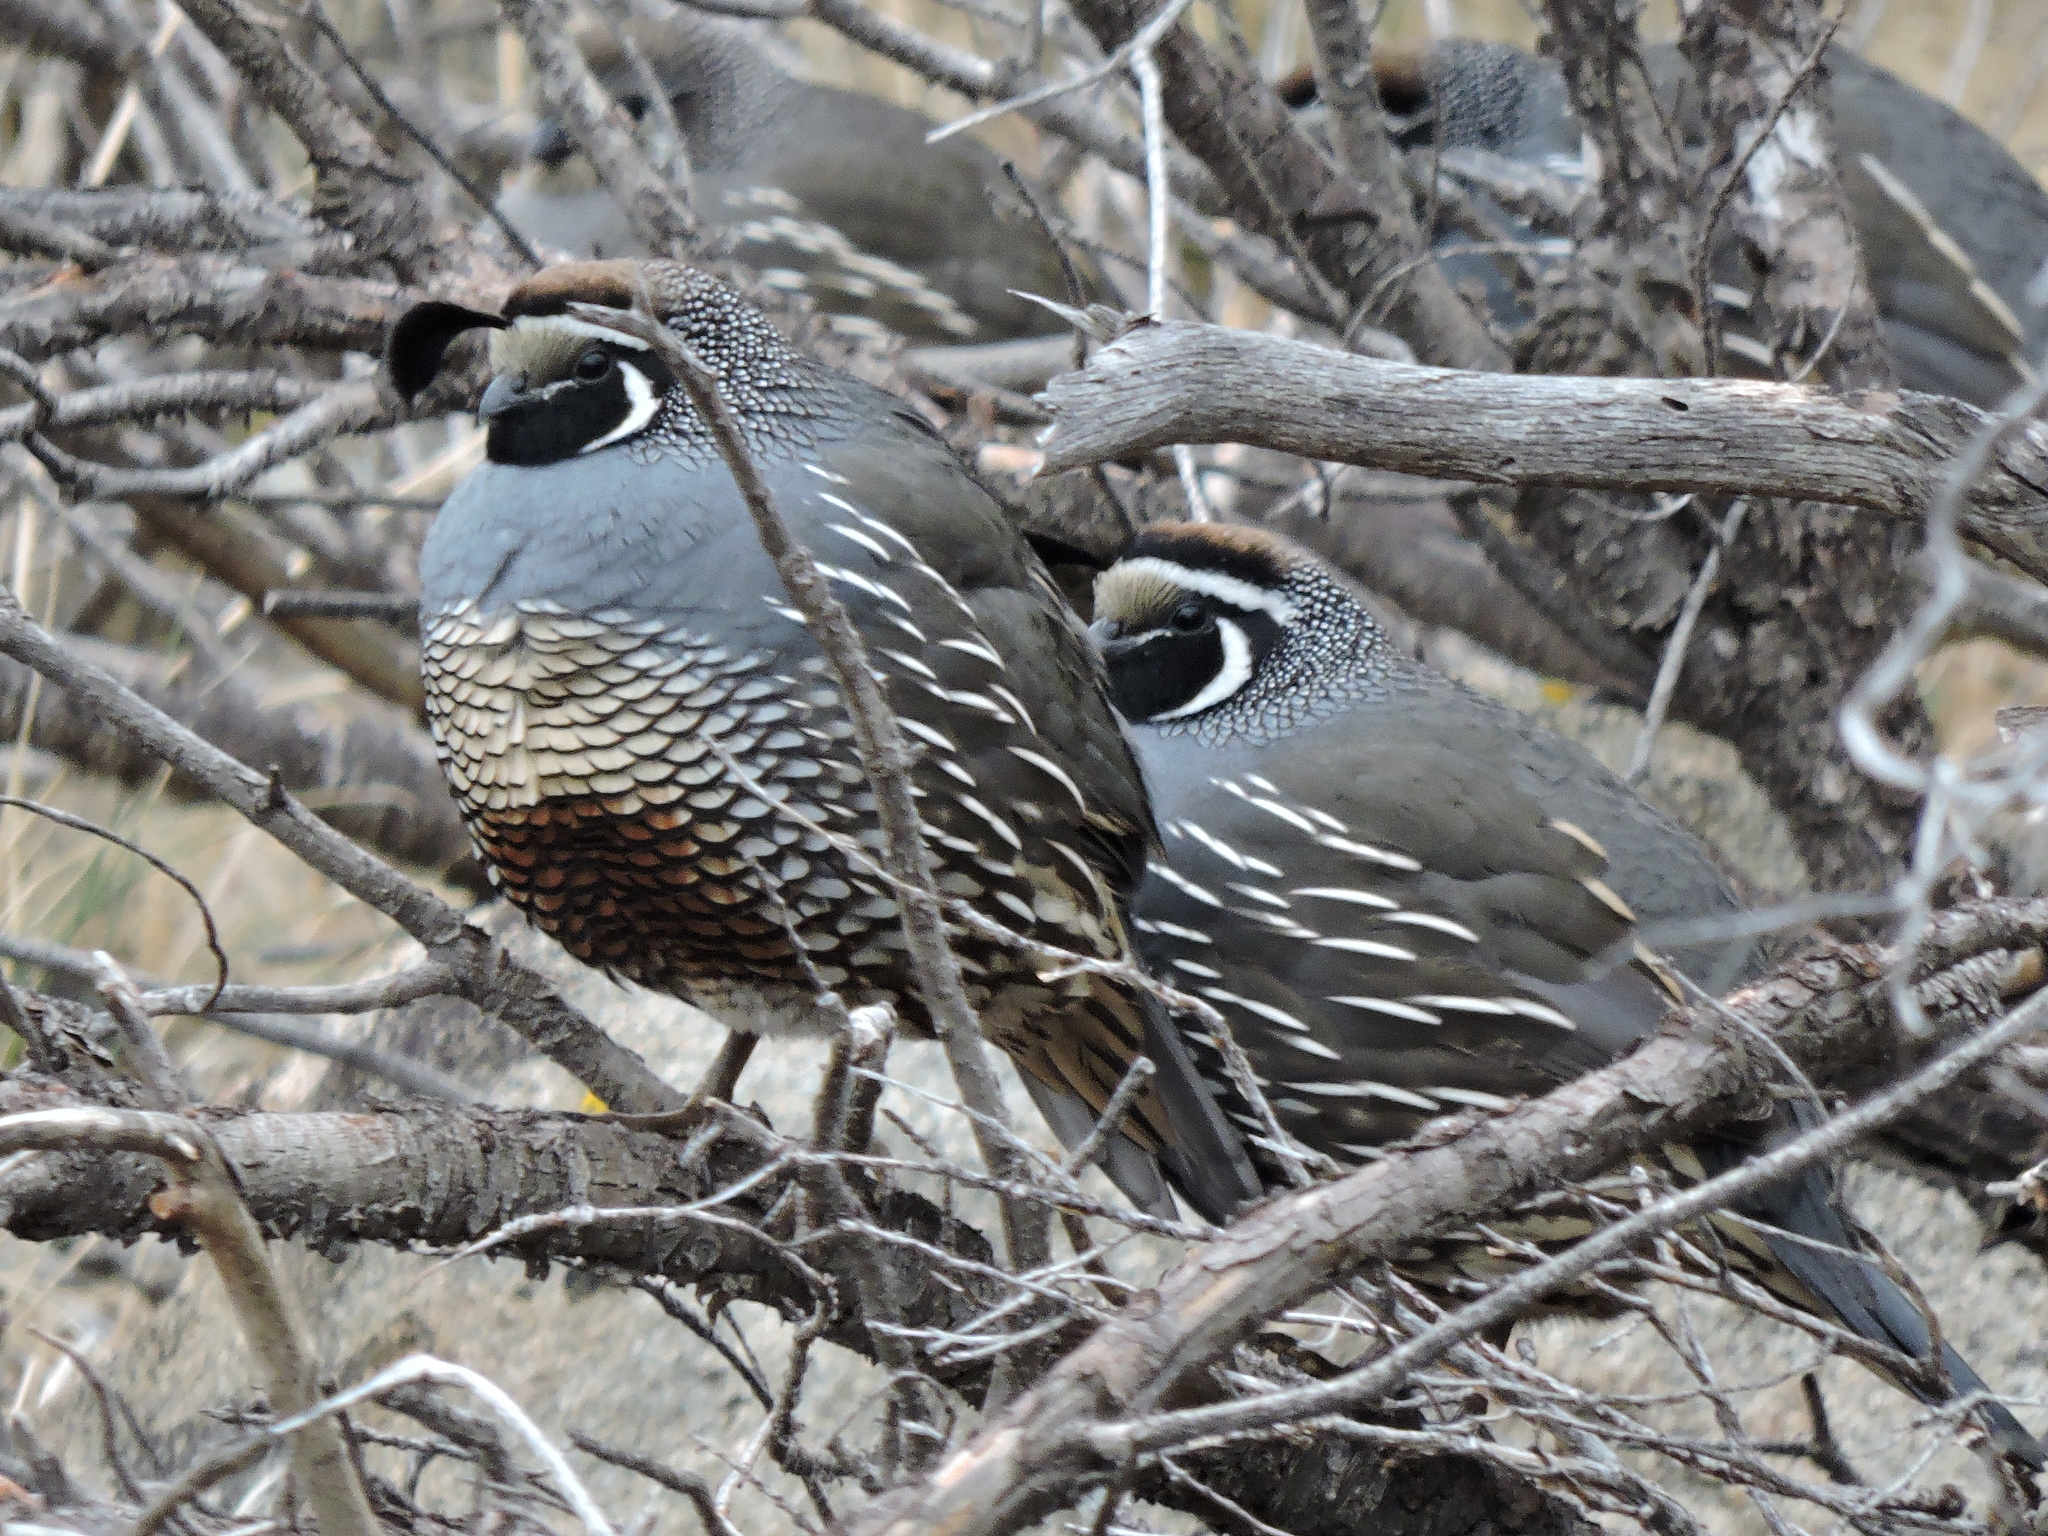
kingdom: Animalia
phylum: Chordata
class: Aves
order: Galliformes
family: Odontophoridae
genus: Callipepla
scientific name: Callipepla californica
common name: California quail
